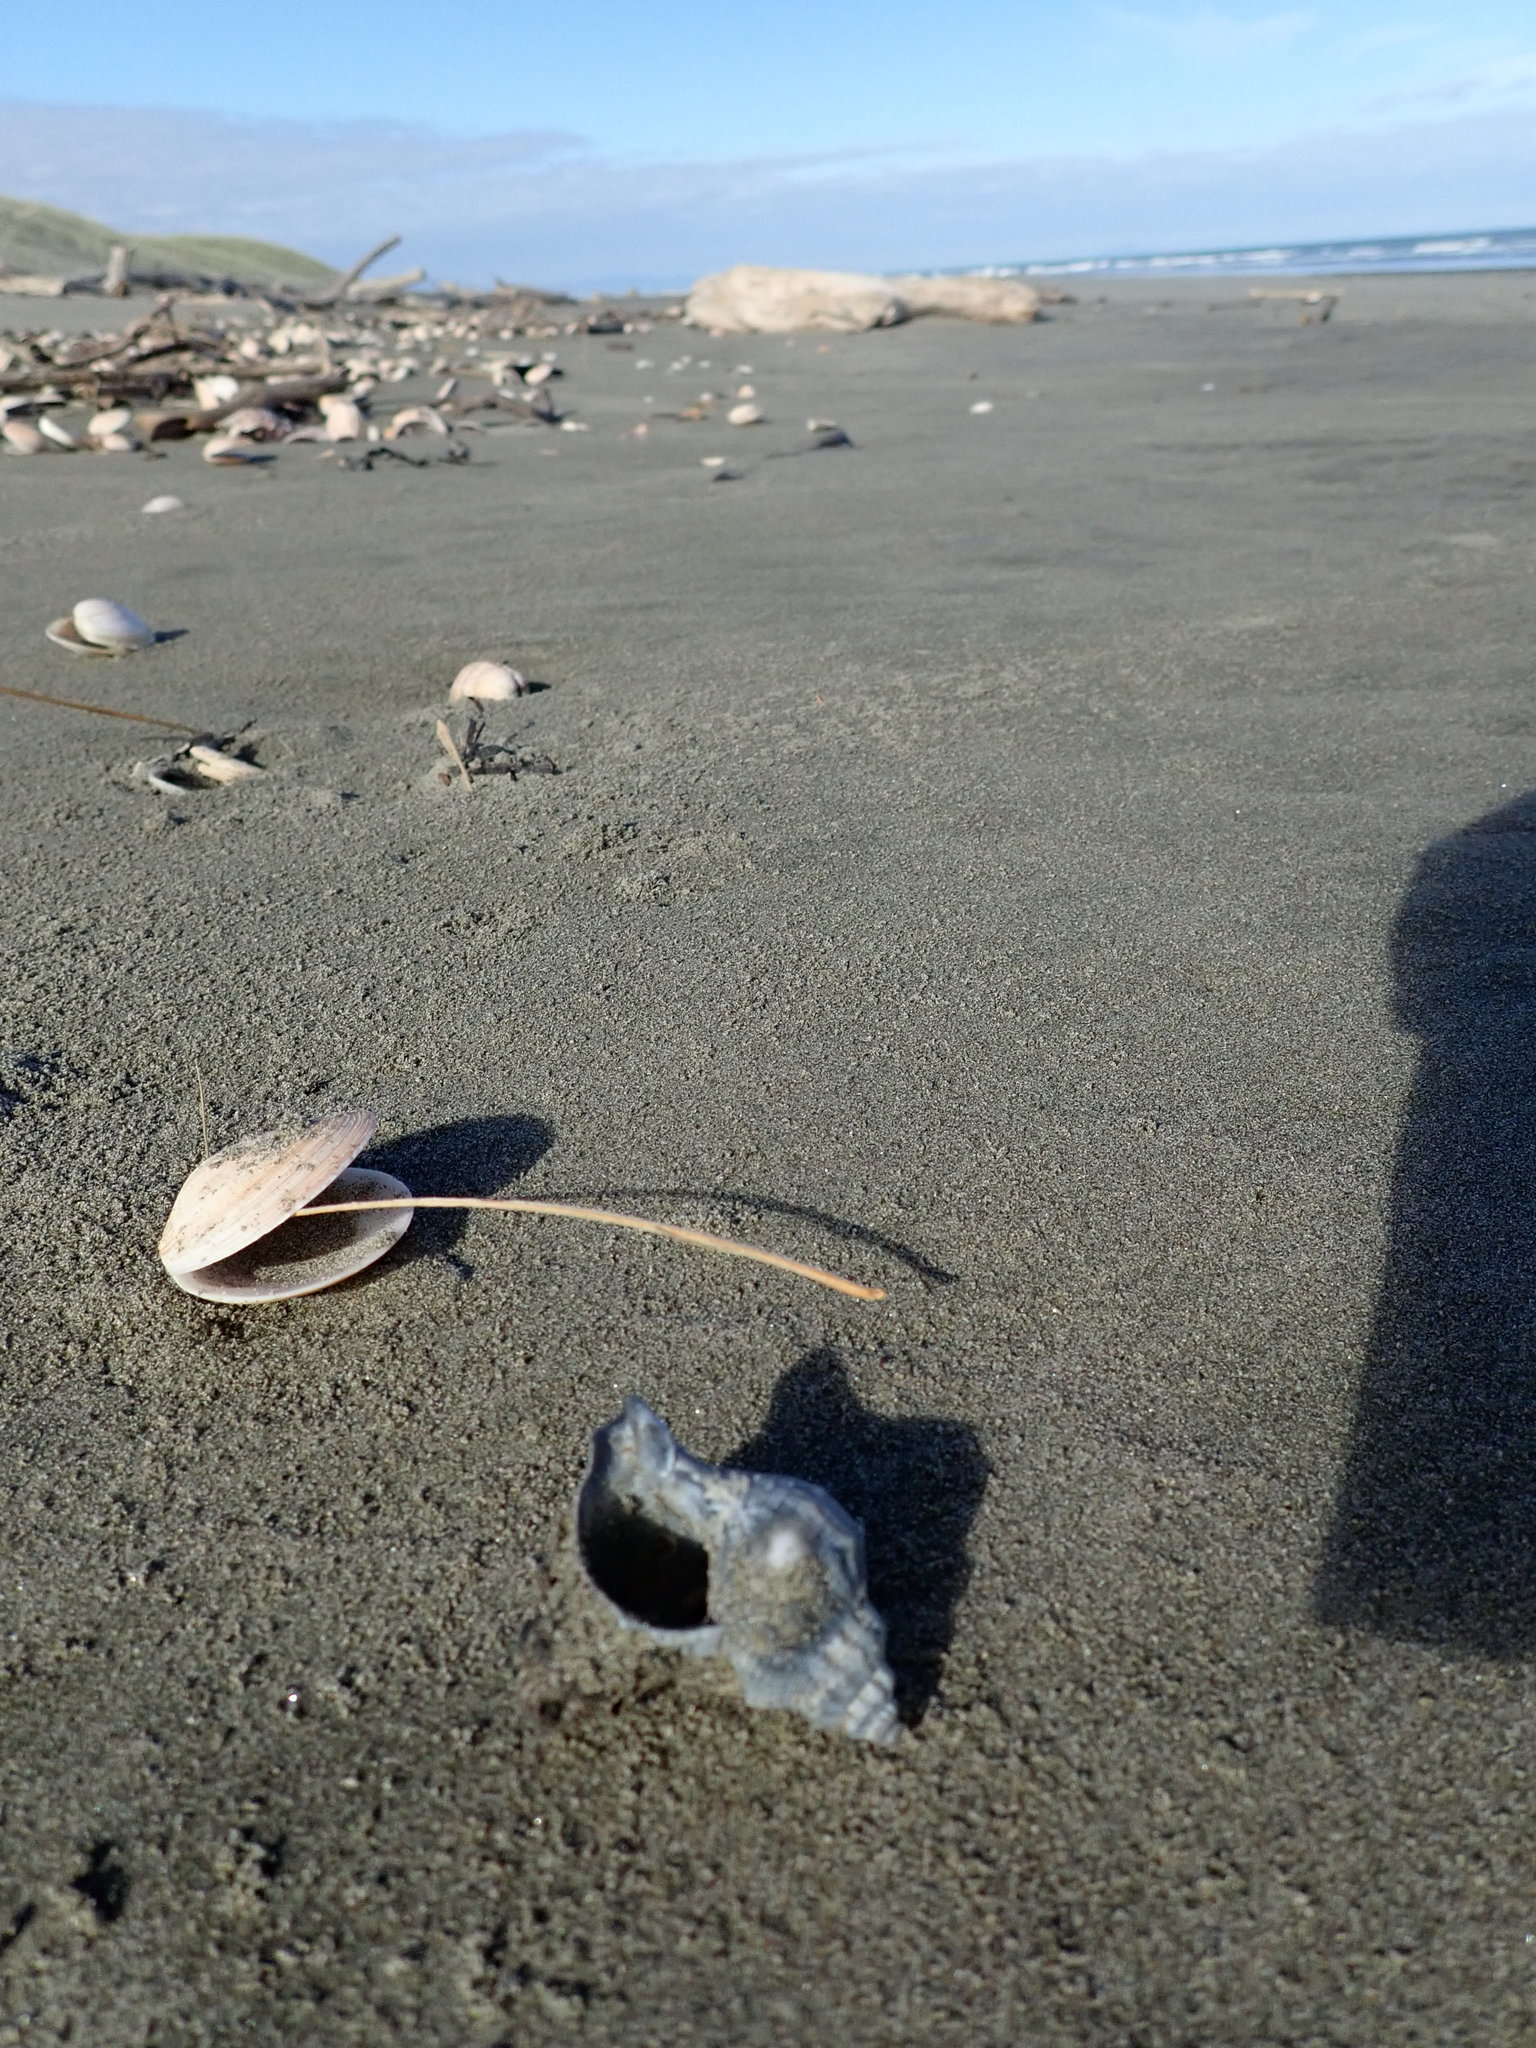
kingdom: Animalia
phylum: Mollusca
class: Gastropoda
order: Neogastropoda
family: Prosiphonidae
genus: Austrofusus
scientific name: Austrofusus glans
